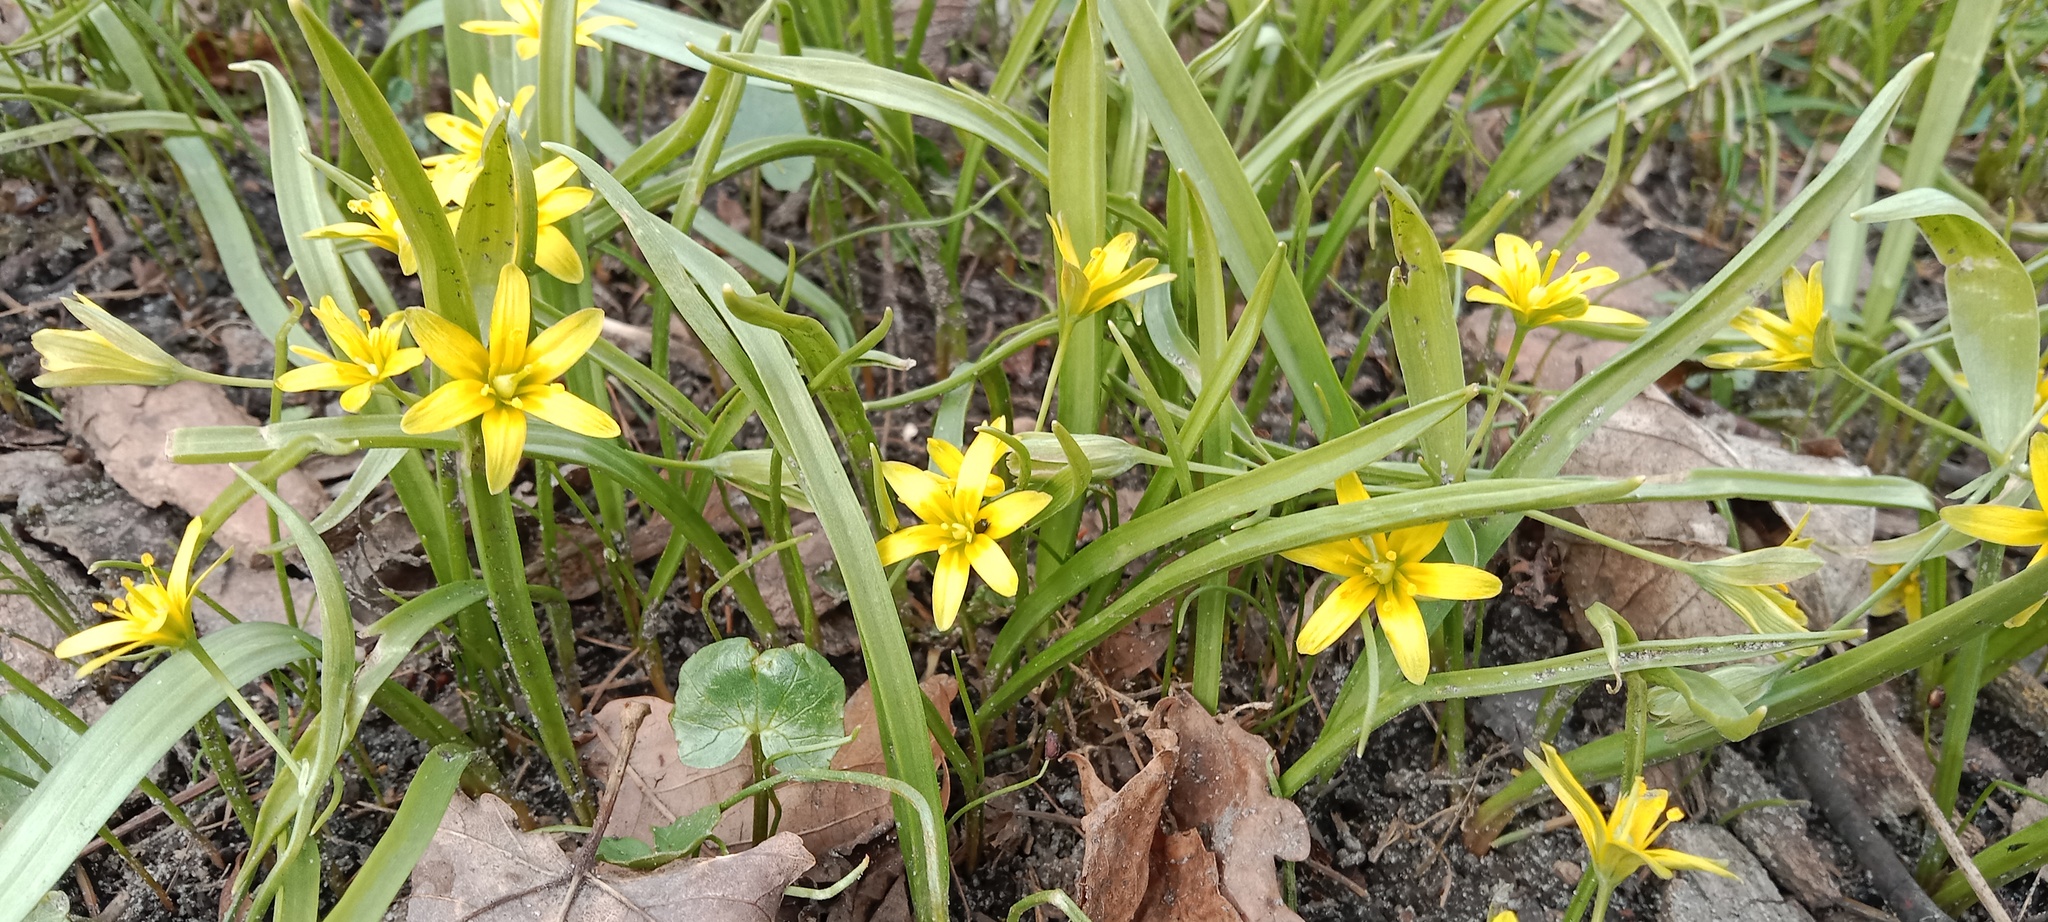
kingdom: Plantae
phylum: Tracheophyta
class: Liliopsida
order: Liliales
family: Liliaceae
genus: Gagea
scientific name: Gagea lutea
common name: Yellow star-of-bethlehem
